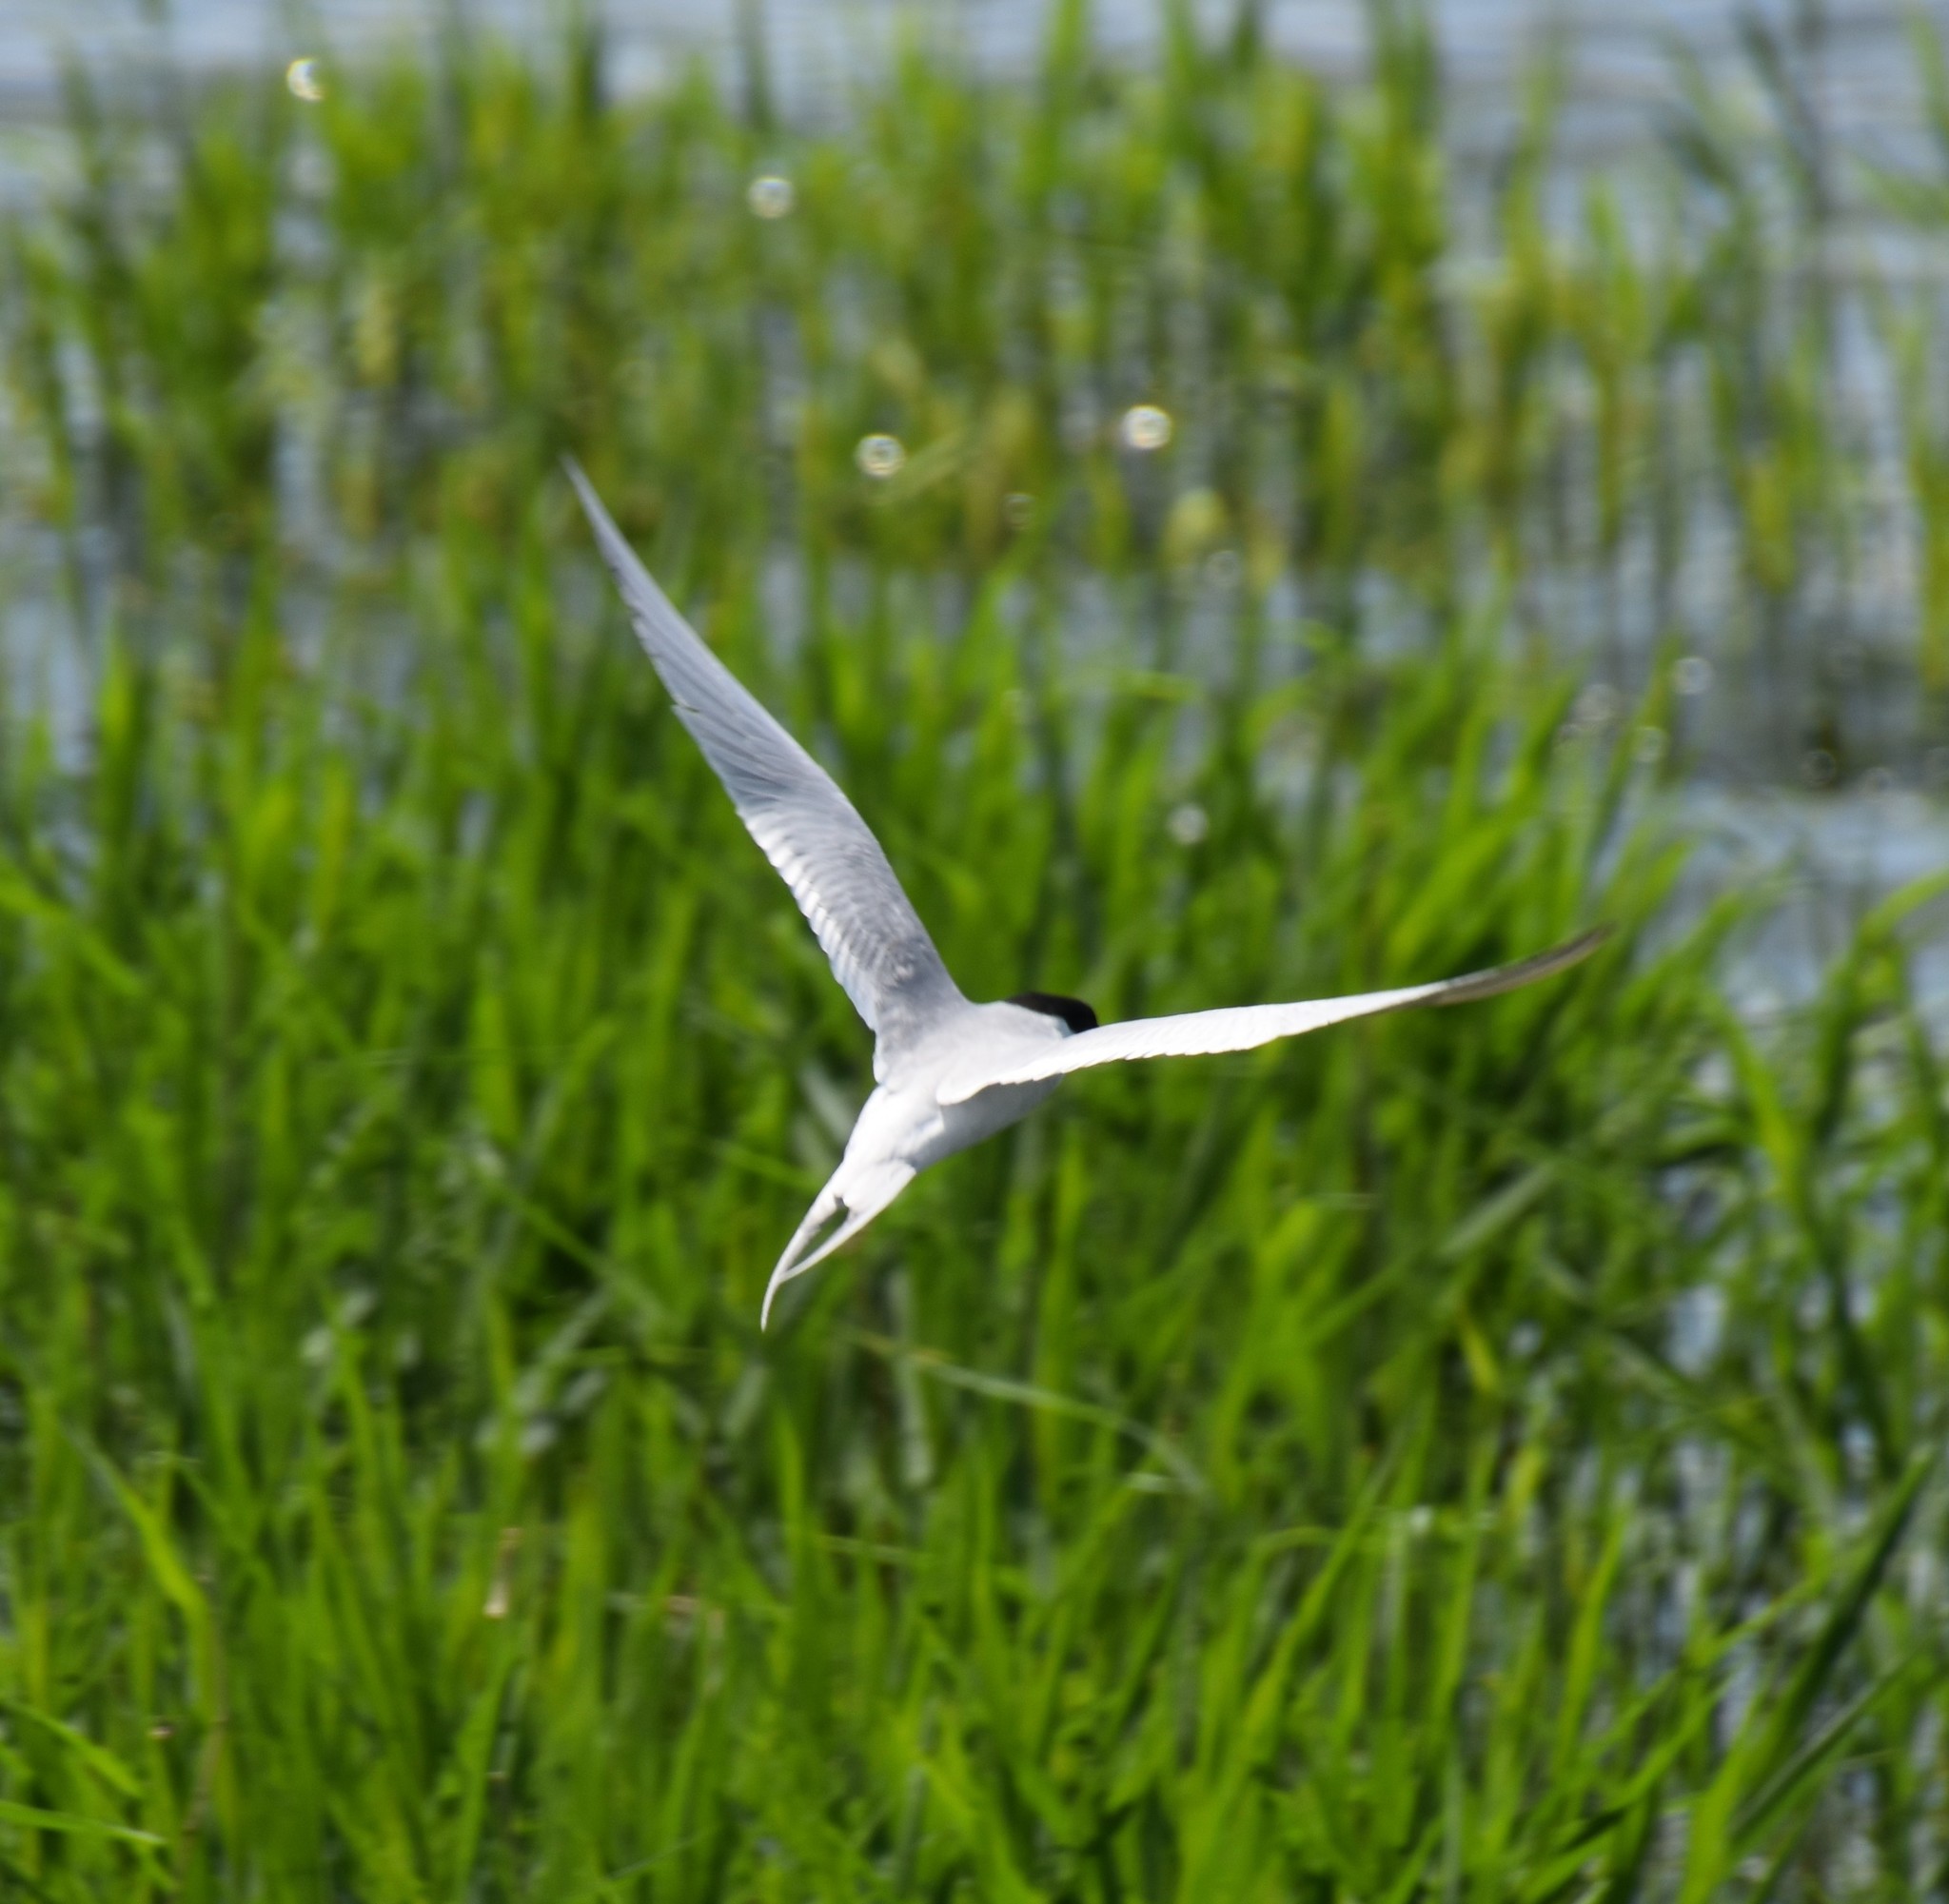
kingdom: Animalia
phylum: Chordata
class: Aves
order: Charadriiformes
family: Laridae
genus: Sterna
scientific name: Sterna forsteri
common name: Forster's tern
